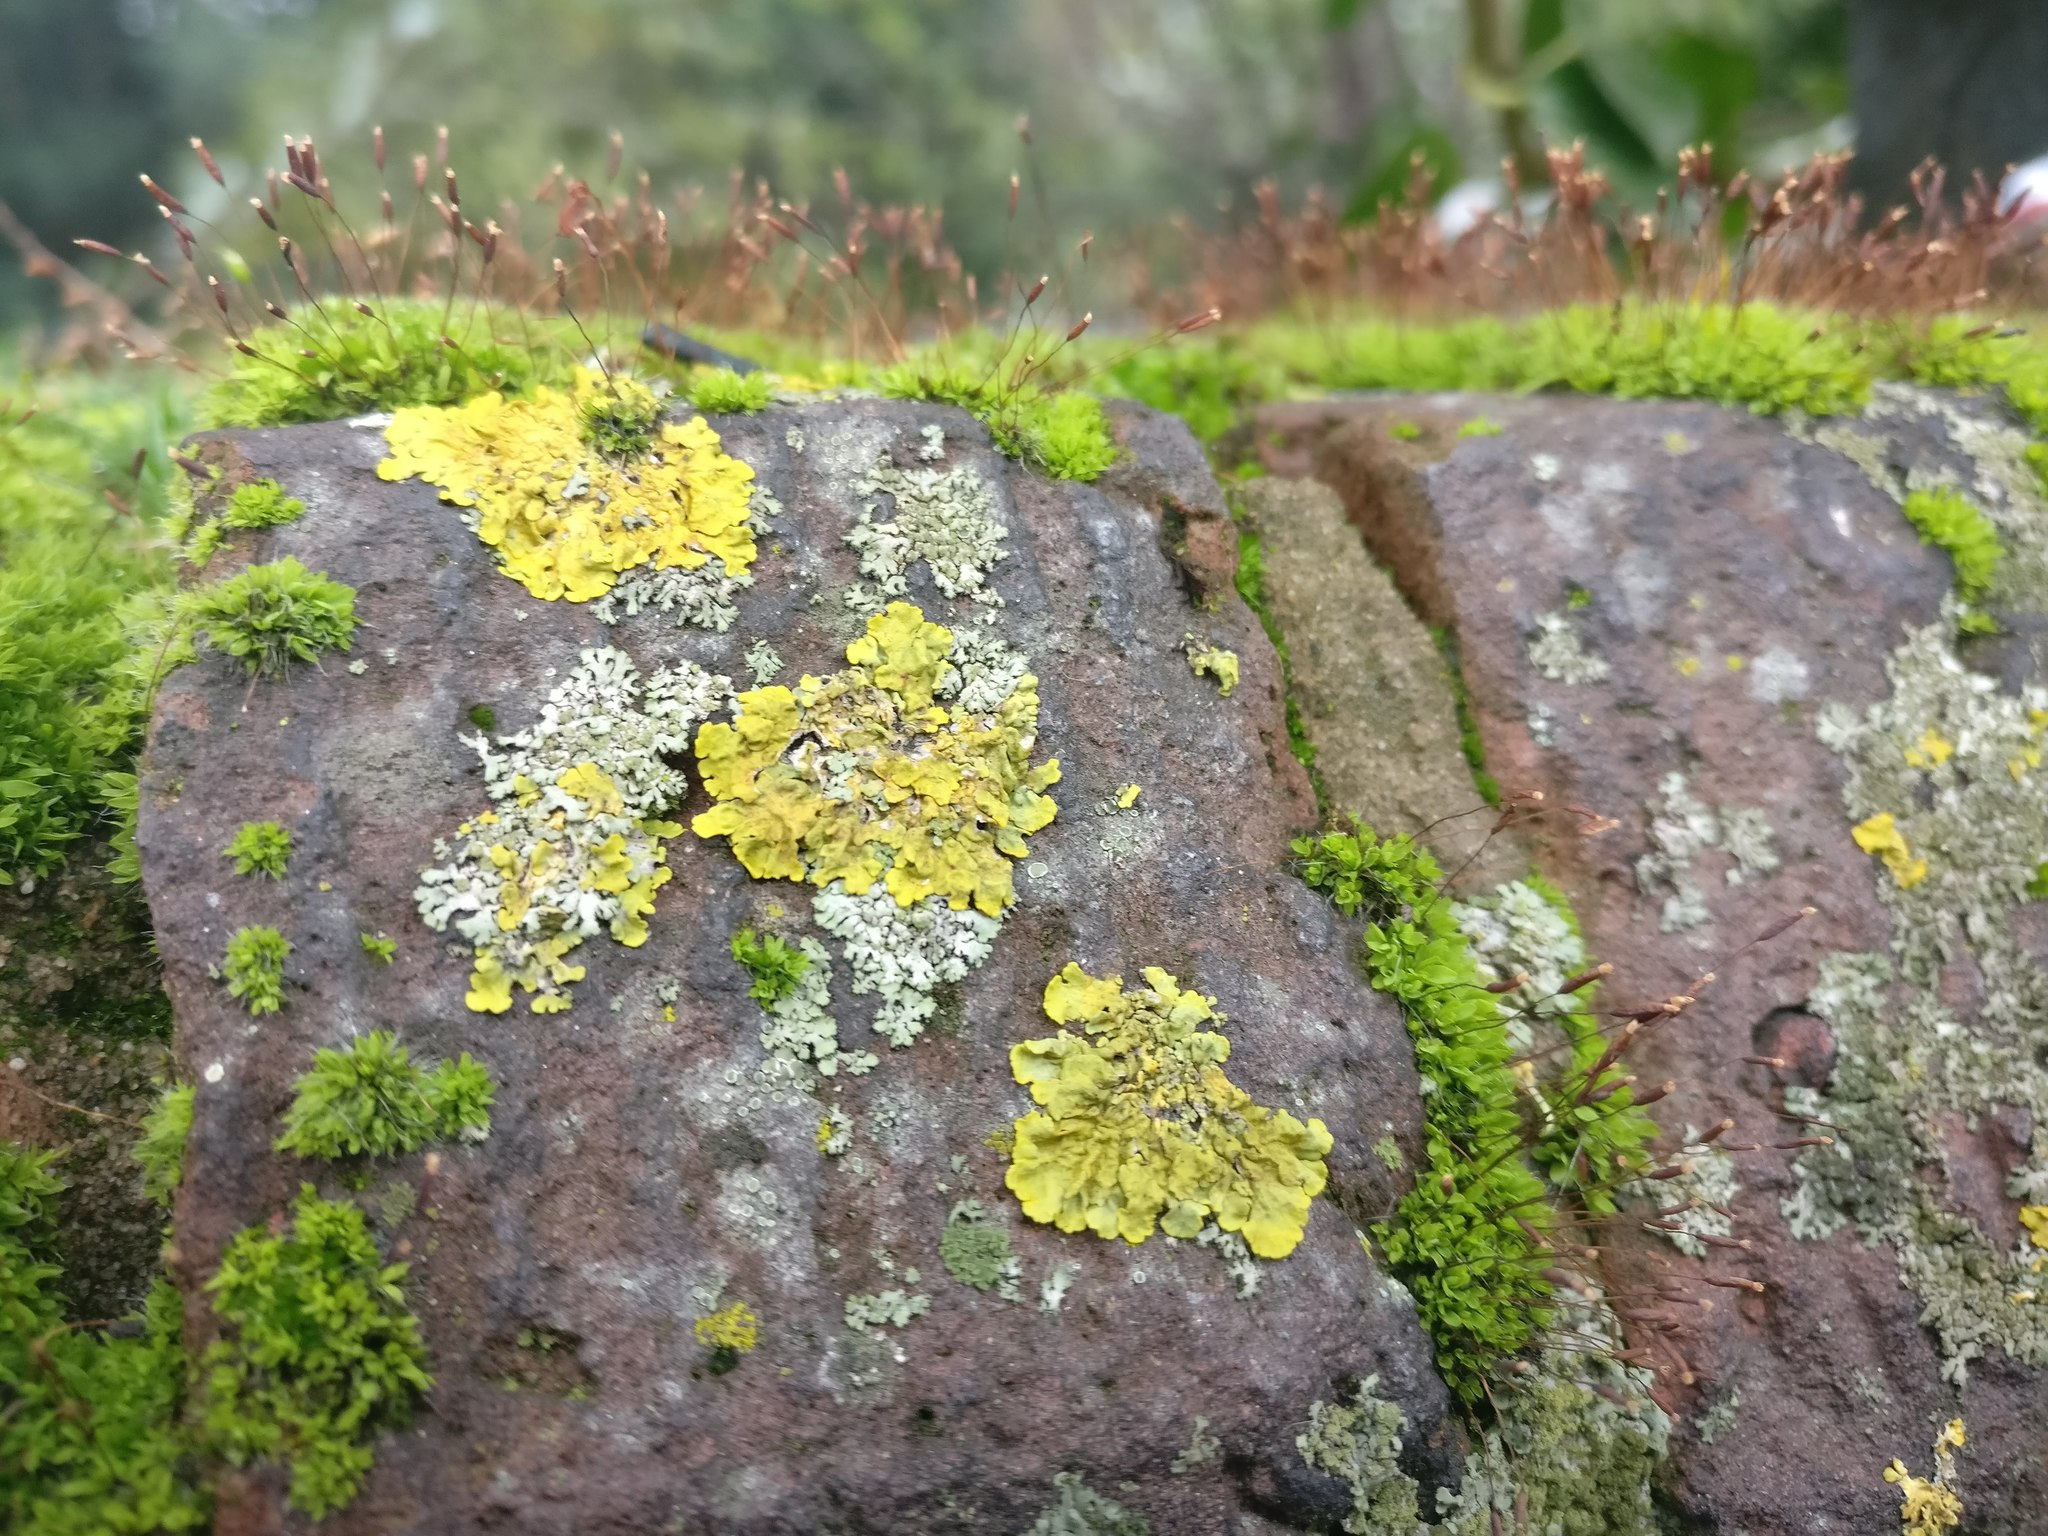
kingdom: Fungi
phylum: Ascomycota
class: Lecanoromycetes
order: Teloschistales
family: Teloschistaceae
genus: Xanthoria
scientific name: Xanthoria parietina
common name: Common orange lichen
